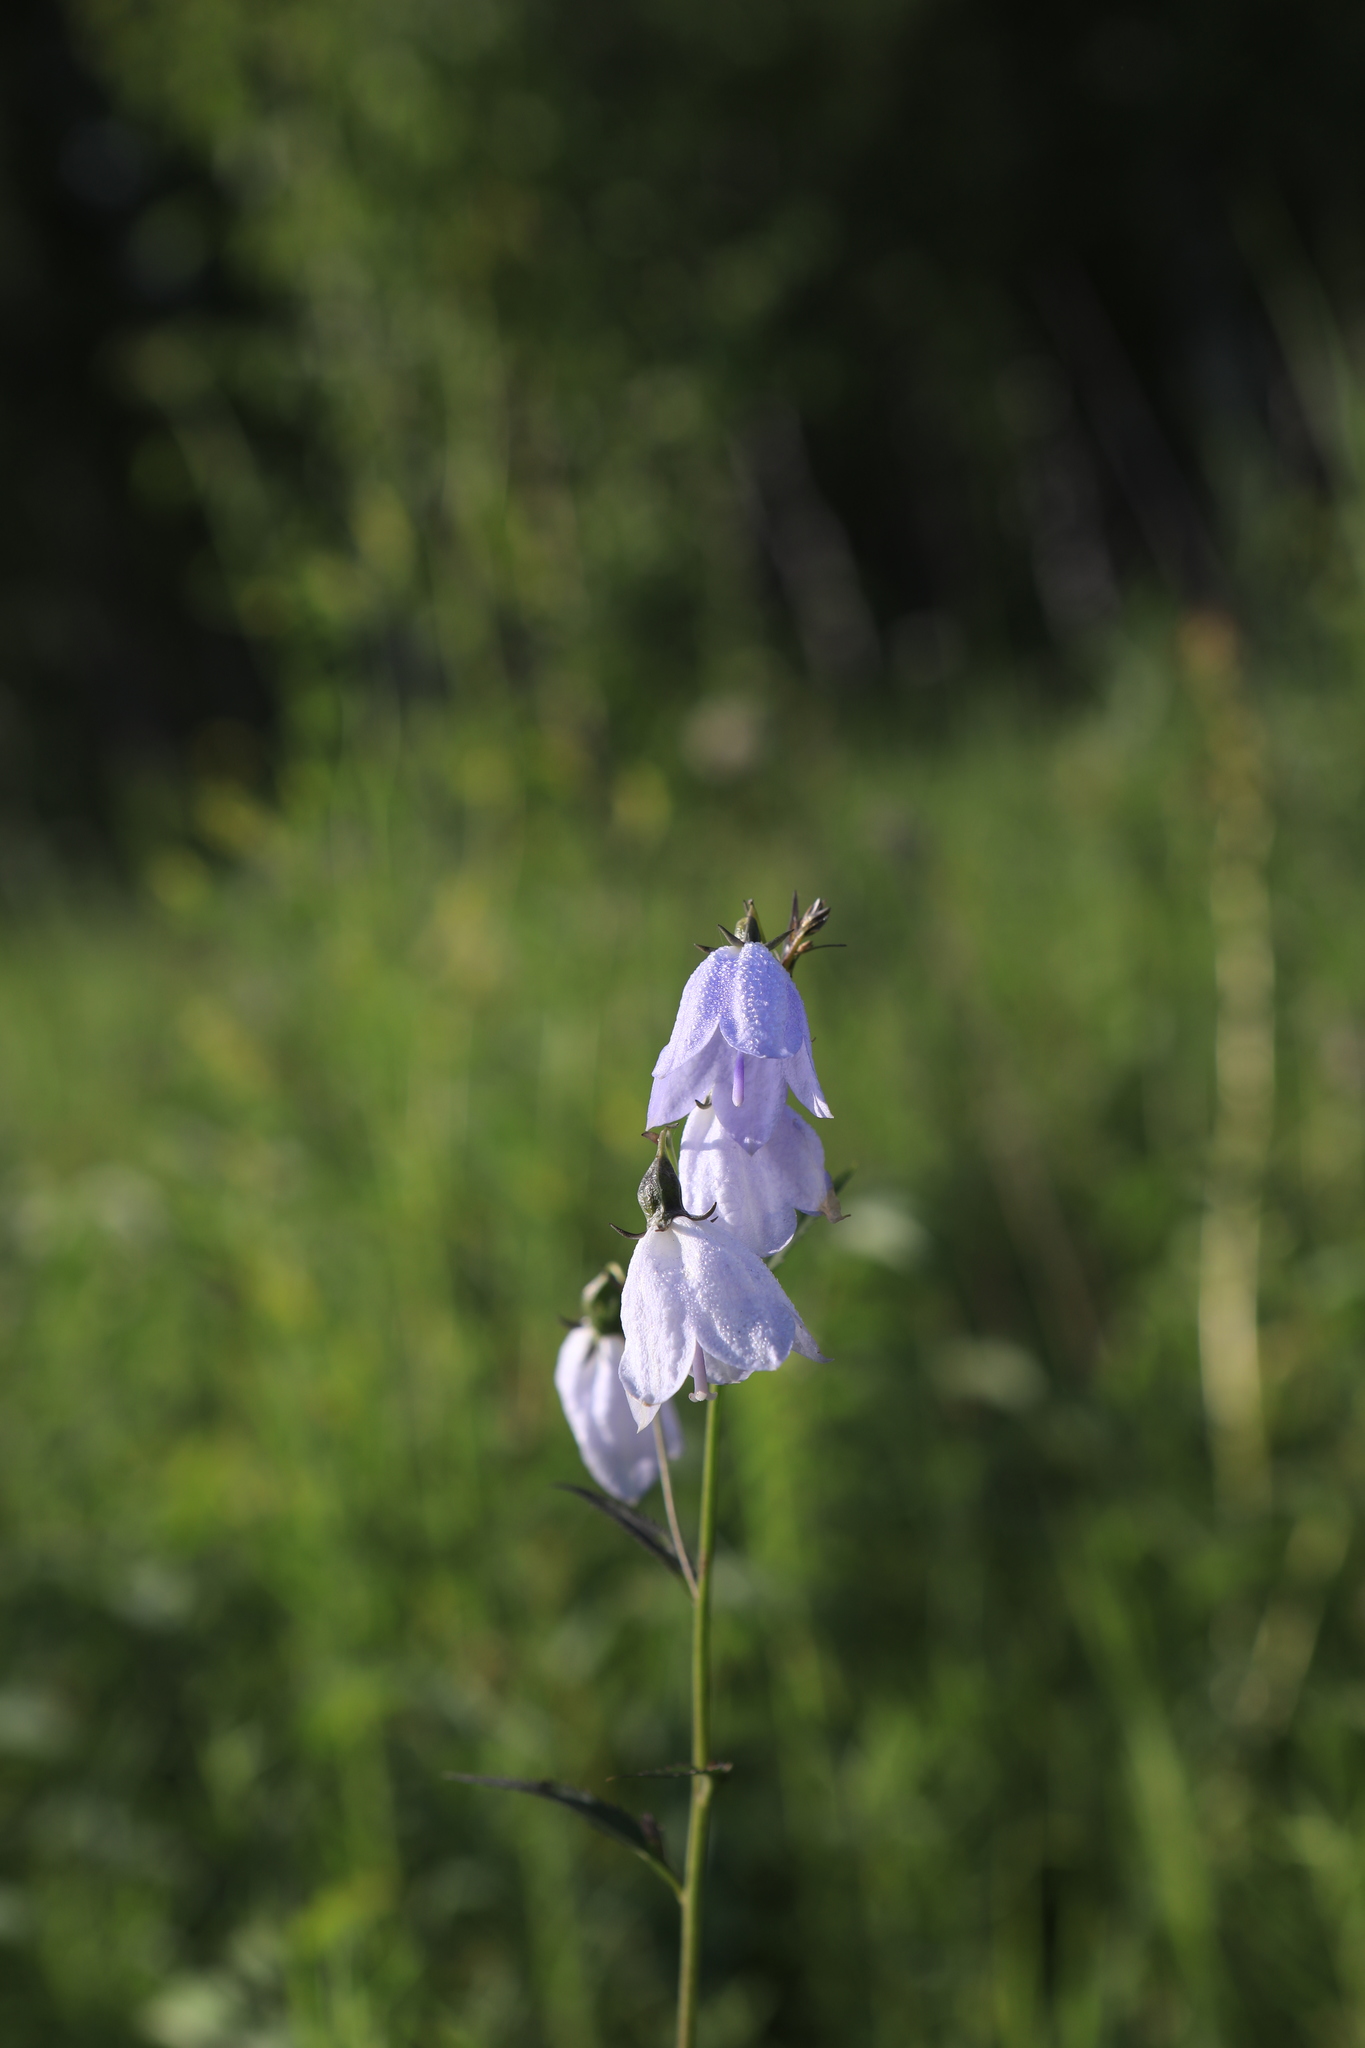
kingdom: Plantae
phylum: Tracheophyta
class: Magnoliopsida
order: Asterales
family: Campanulaceae
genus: Adenophora
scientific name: Adenophora liliifolia
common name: Lilyleaf ladybells
